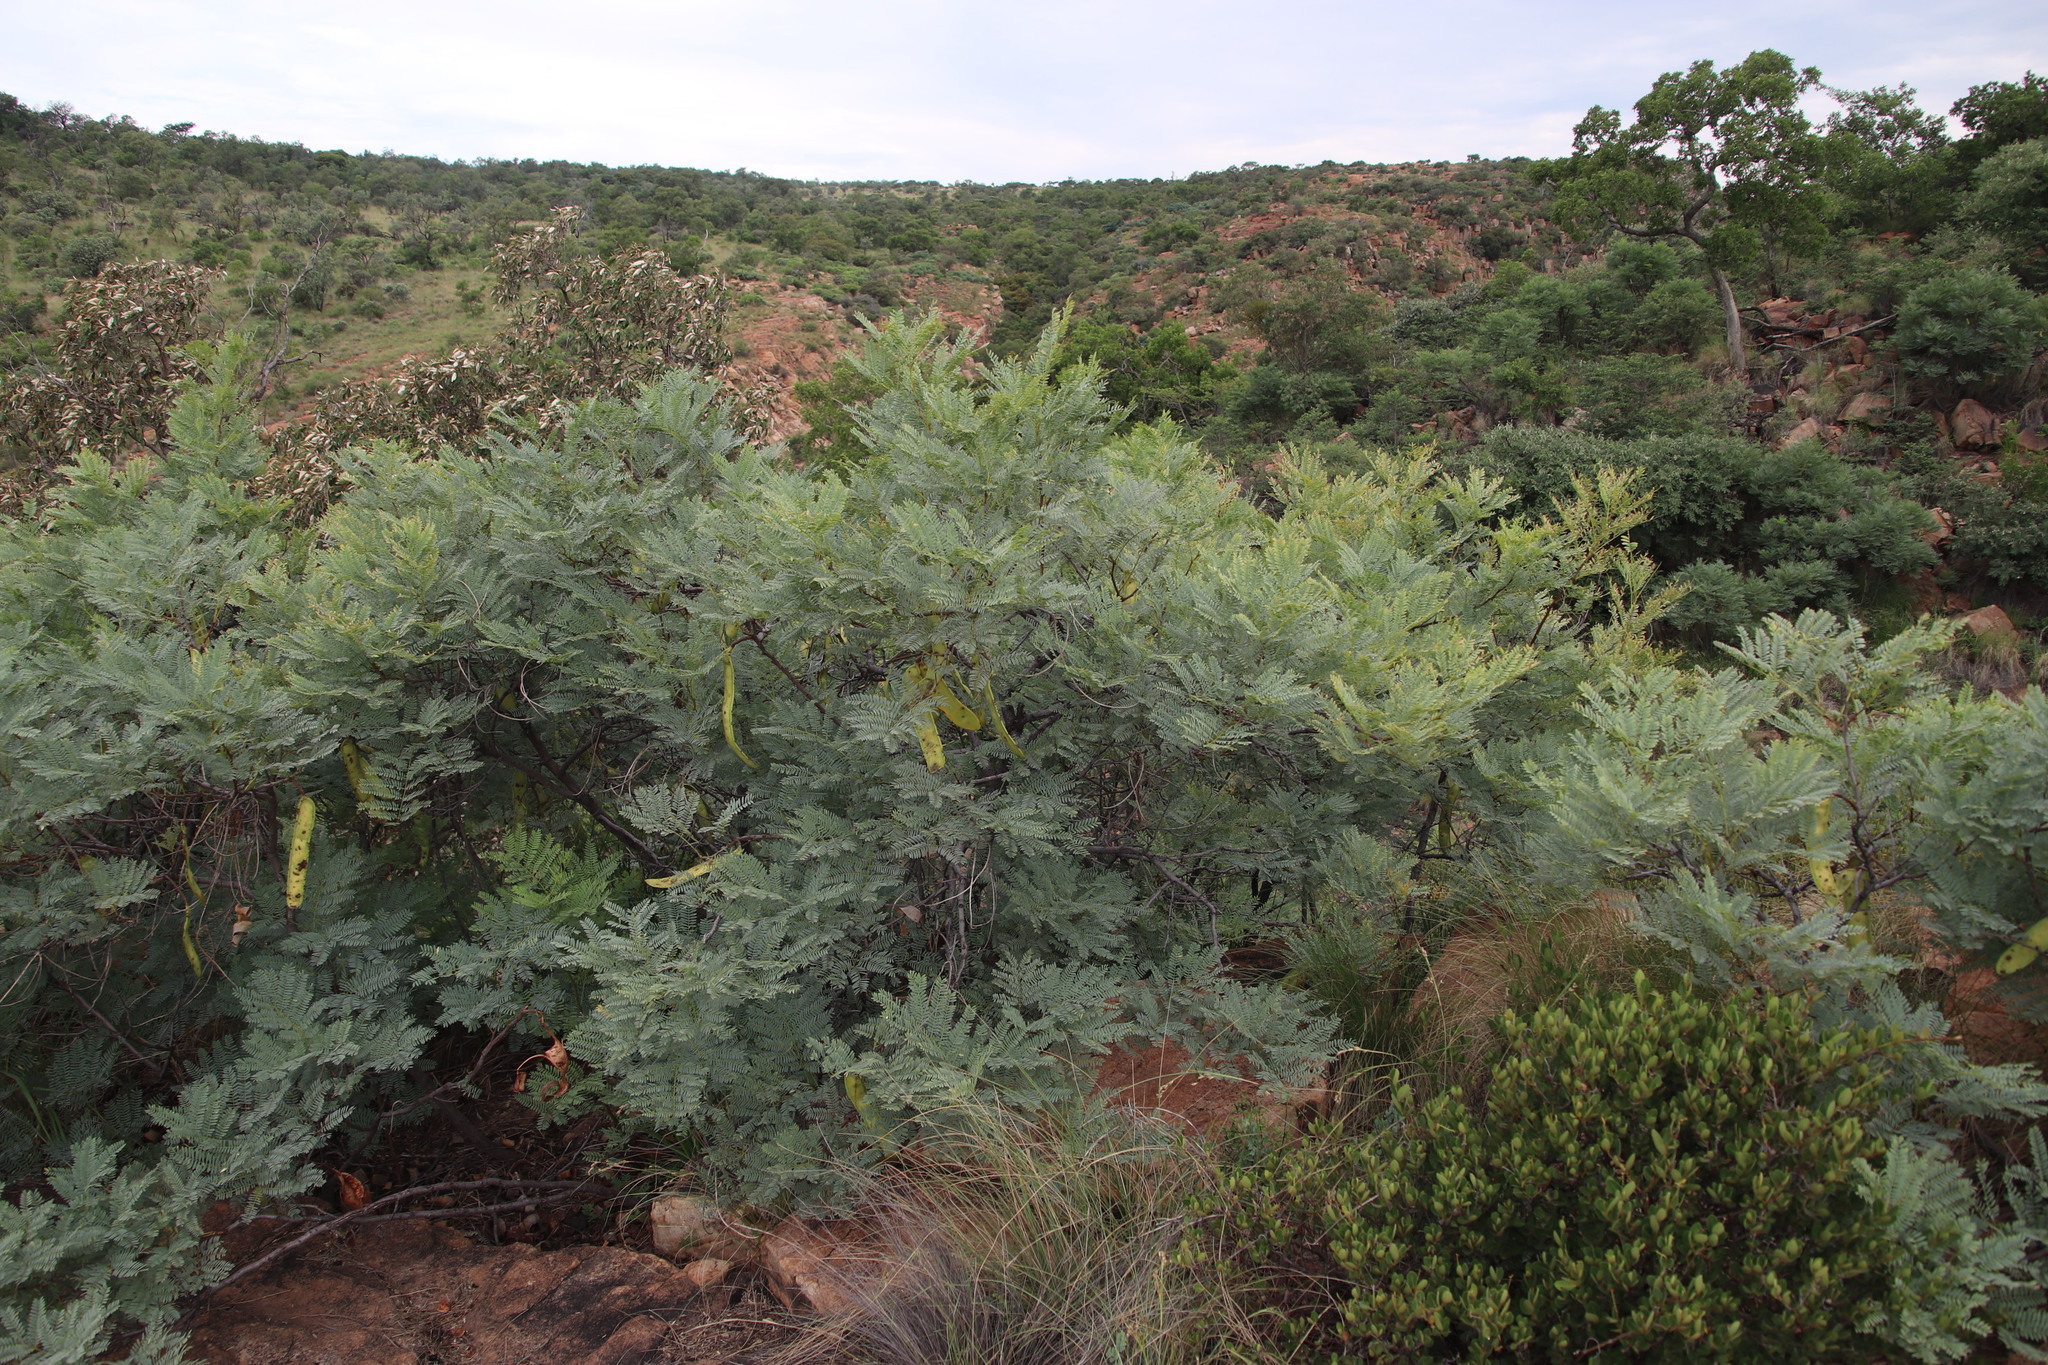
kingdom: Plantae
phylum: Tracheophyta
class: Magnoliopsida
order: Fabales
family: Fabaceae
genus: Elephantorrhiza
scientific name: Elephantorrhiza burkei
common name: Broad-pod elephant-root
